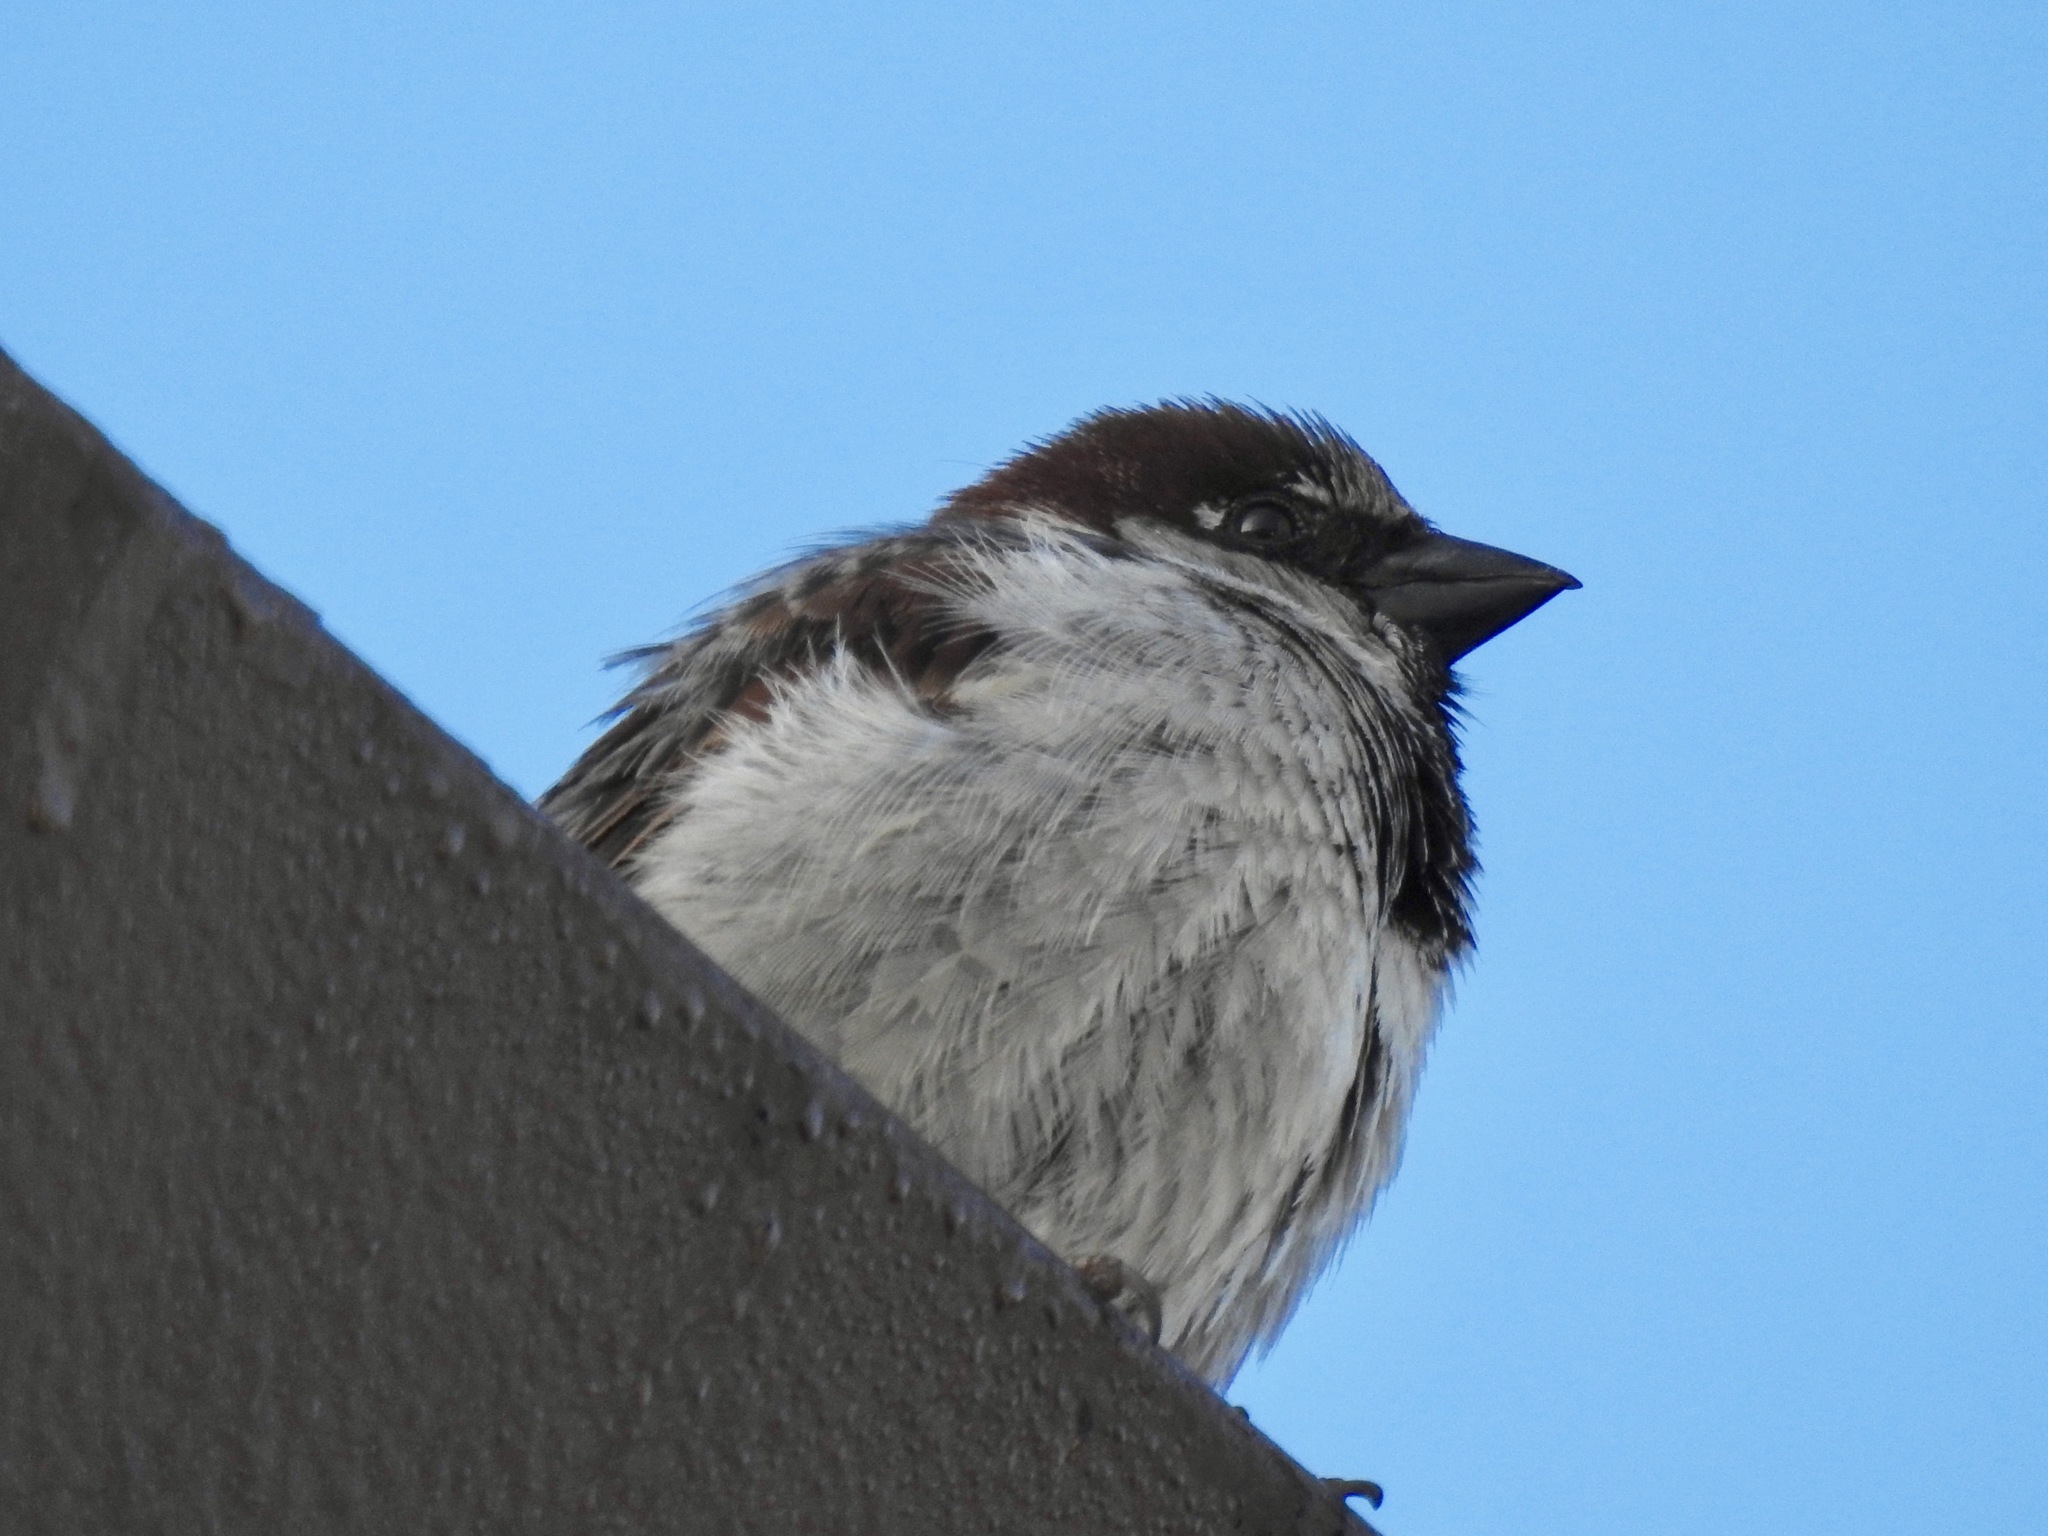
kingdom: Animalia
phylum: Chordata
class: Aves
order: Passeriformes
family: Passeridae
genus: Passer
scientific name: Passer domesticus
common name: House sparrow
